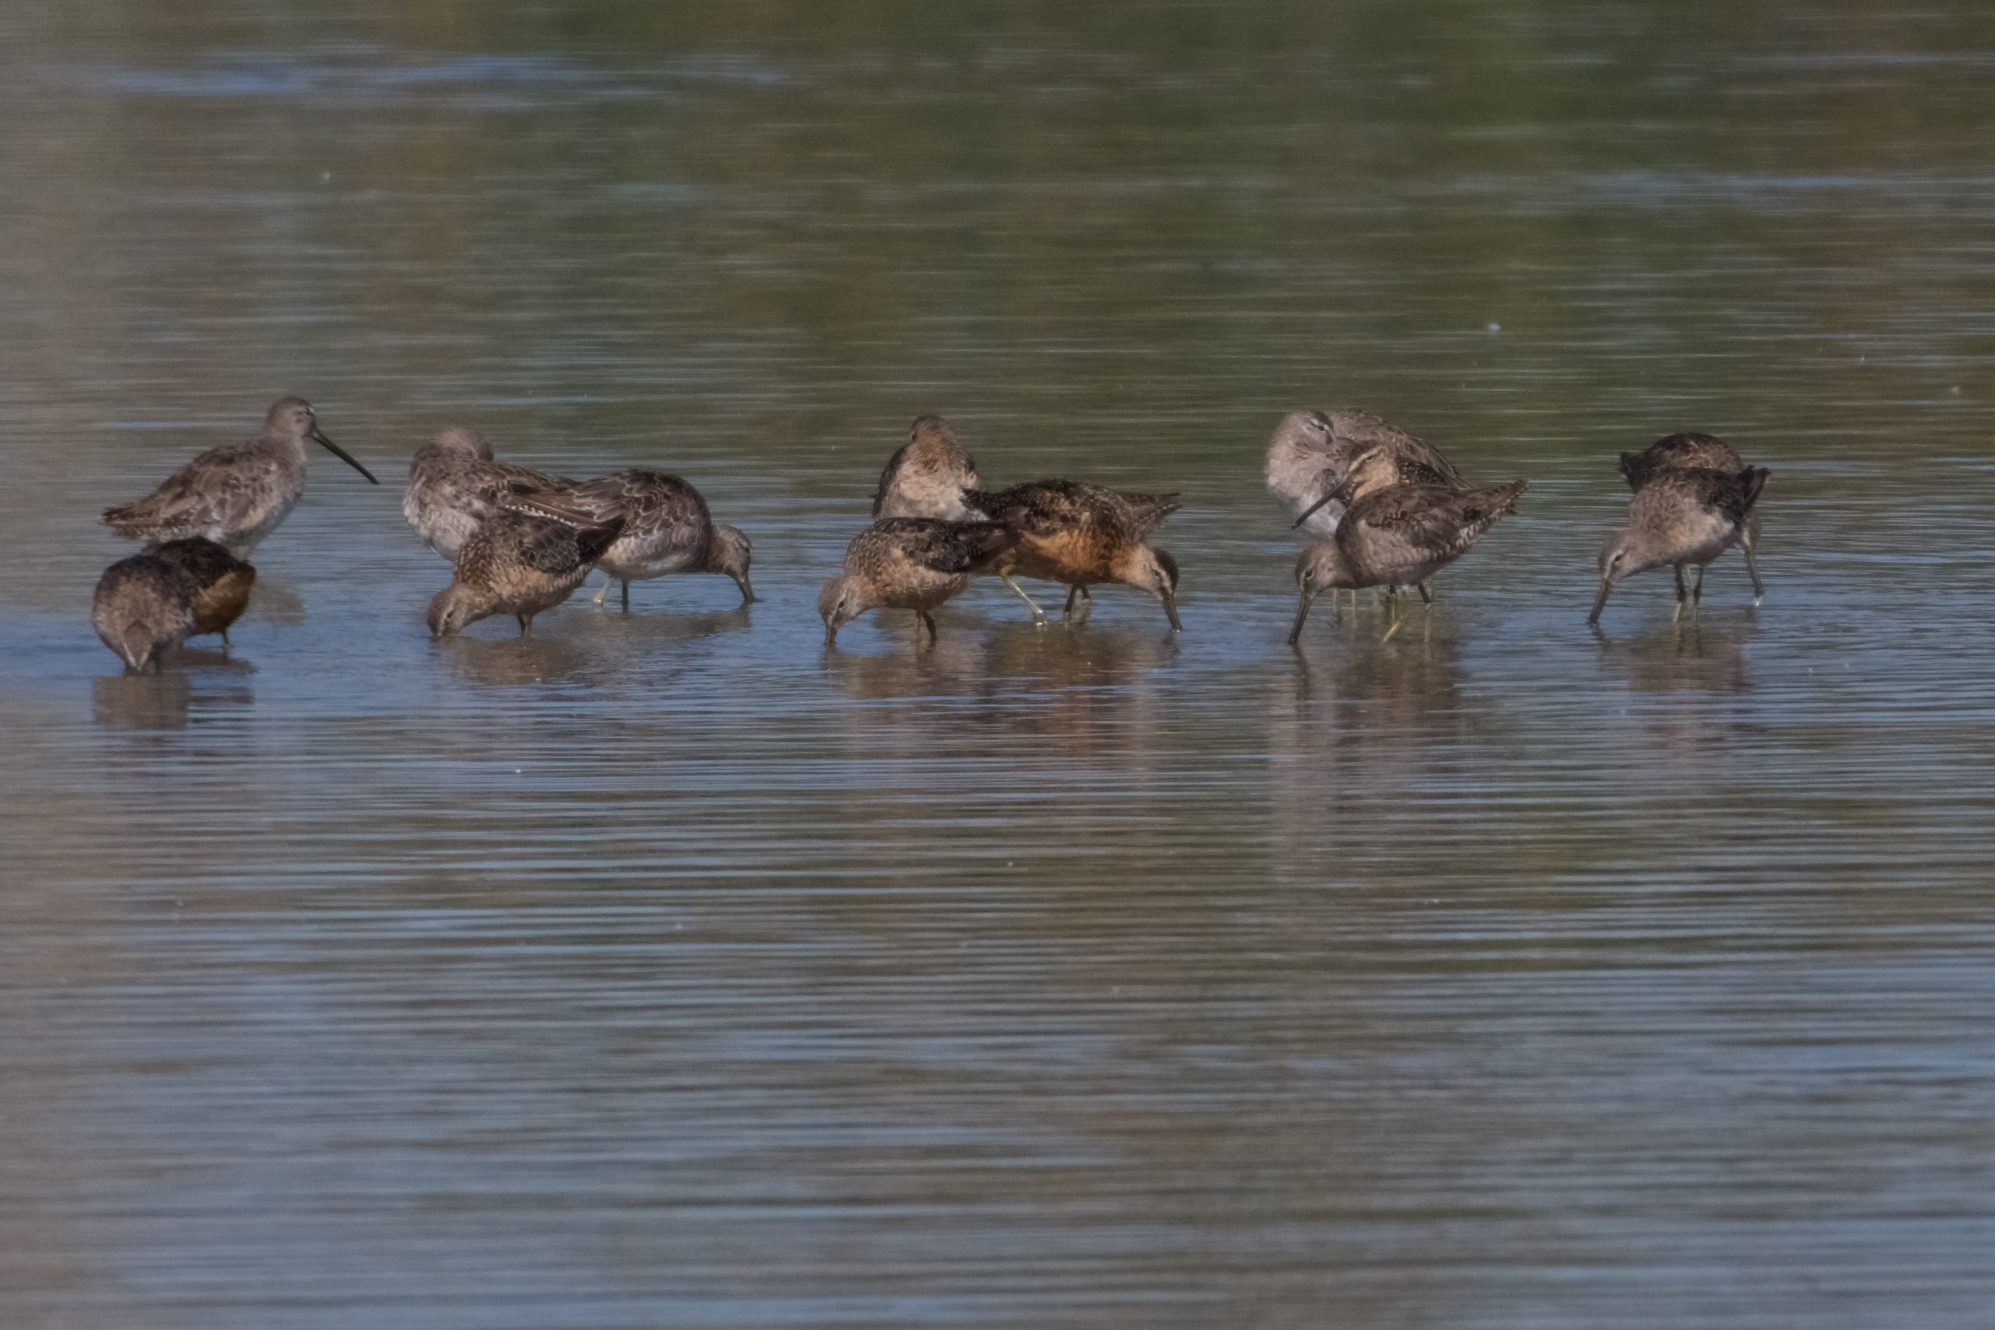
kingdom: Animalia
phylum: Chordata
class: Aves
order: Charadriiformes
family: Scolopacidae
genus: Limnodromus
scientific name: Limnodromus scolopaceus
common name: Long-billed dowitcher
